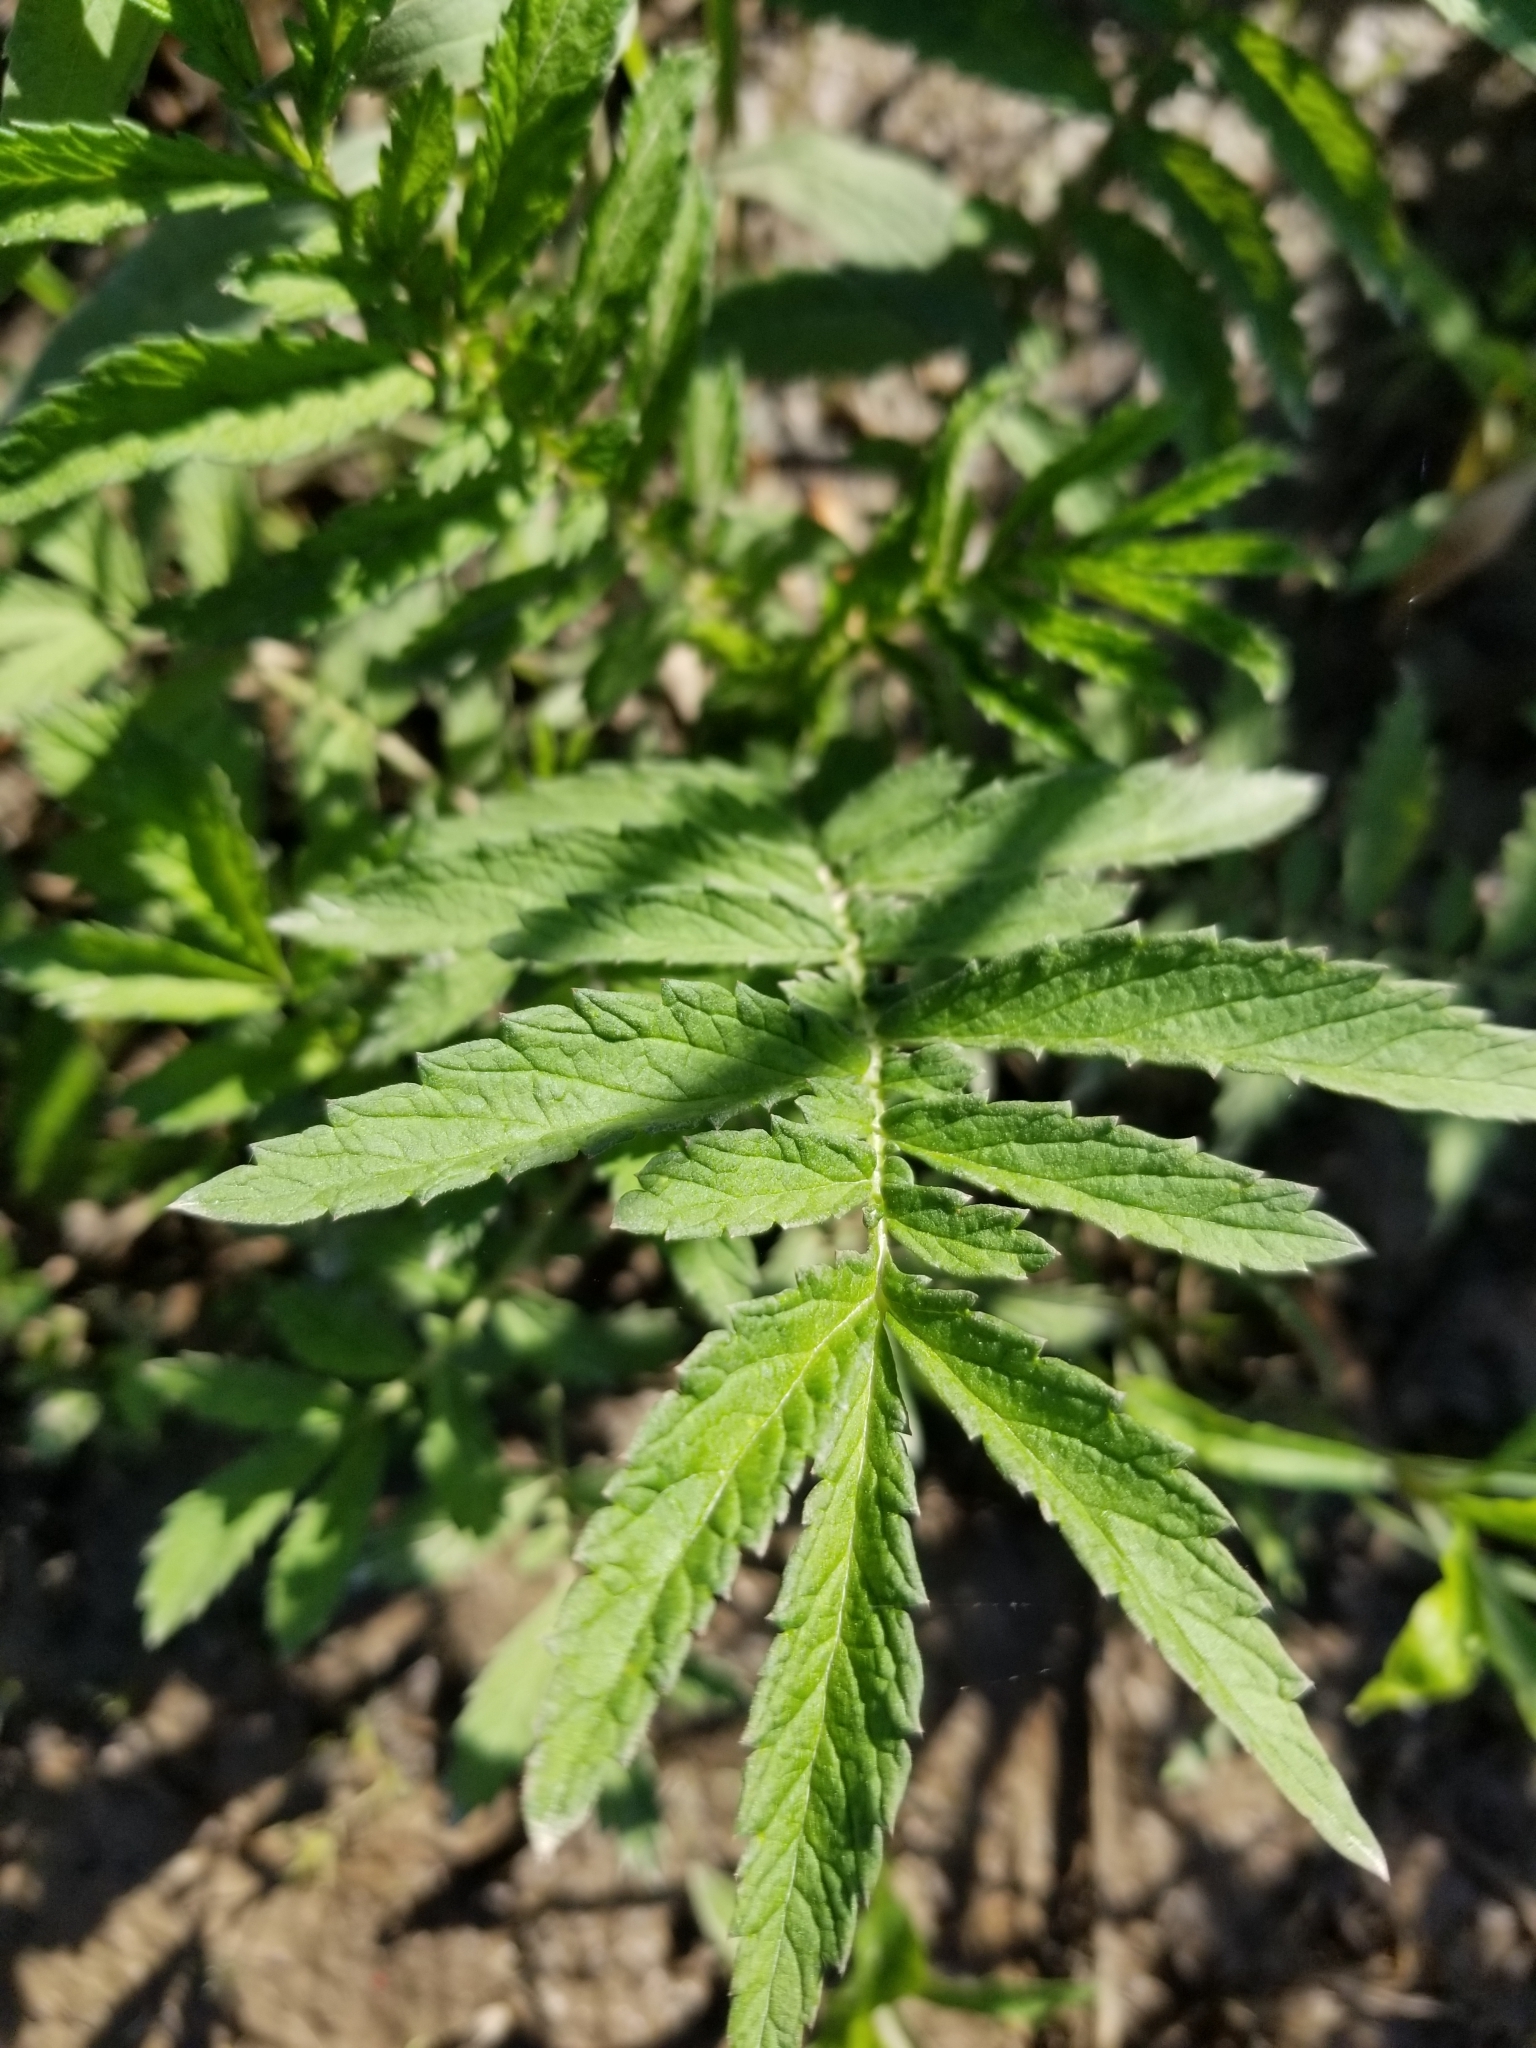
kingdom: Plantae
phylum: Tracheophyta
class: Magnoliopsida
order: Rosales
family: Rosaceae
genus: Agrimonia
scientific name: Agrimonia parviflora
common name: Harvest-lice
